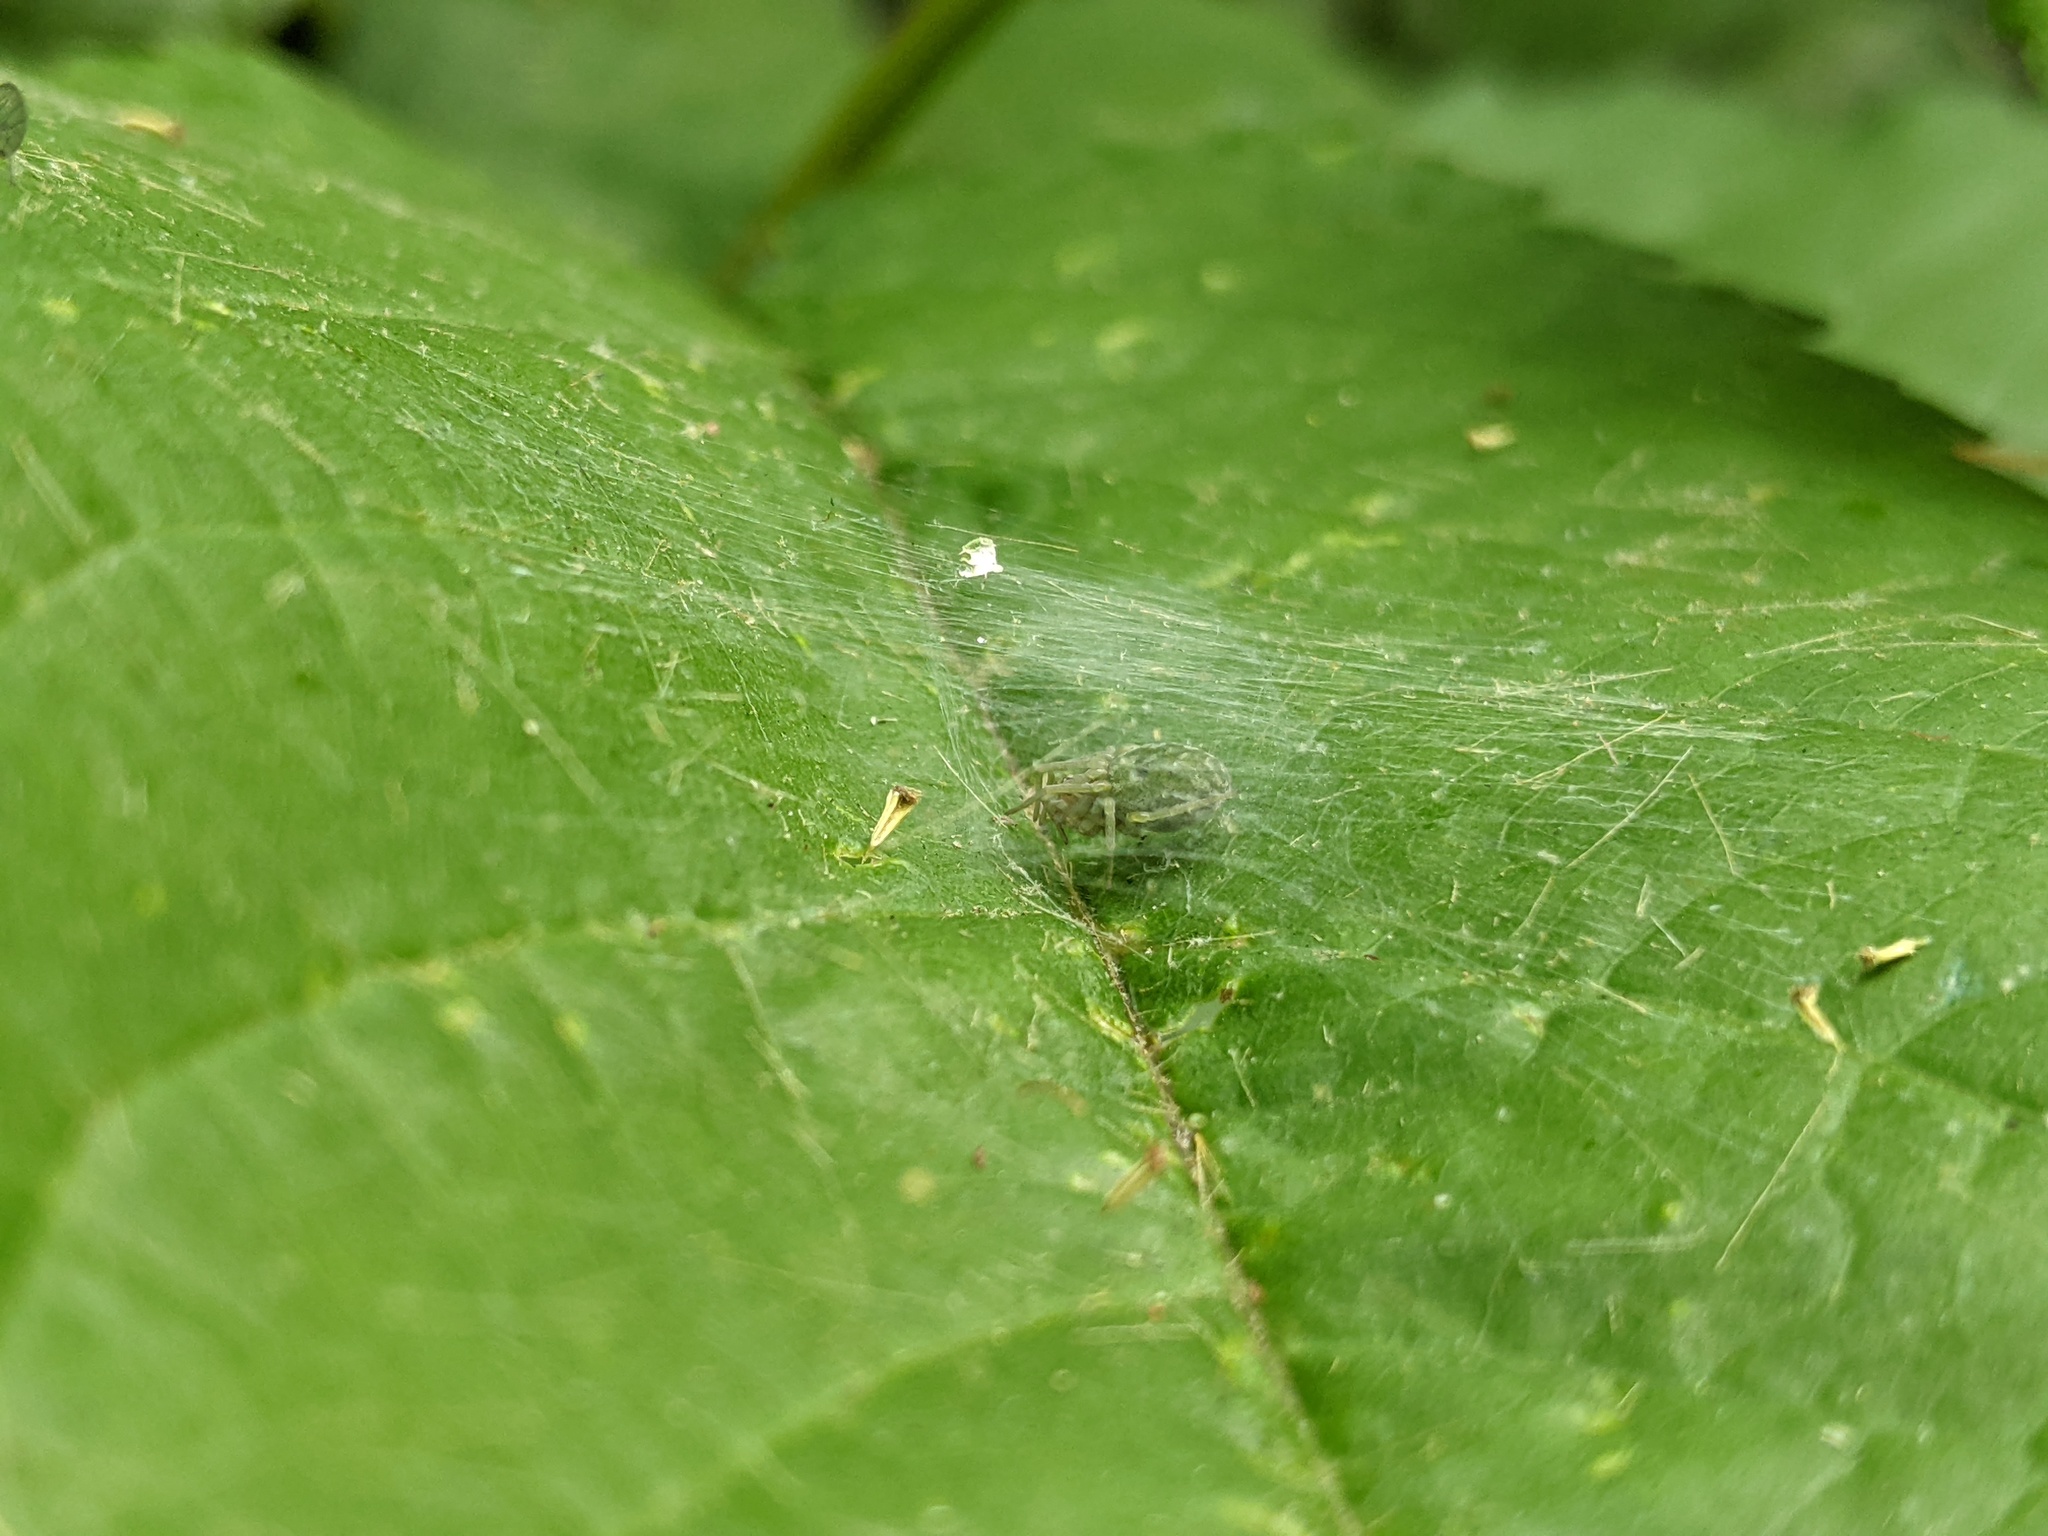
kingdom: Animalia
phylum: Arthropoda
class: Arachnida
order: Araneae
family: Dictynidae
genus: Nigma
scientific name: Nigma walckenaeri
